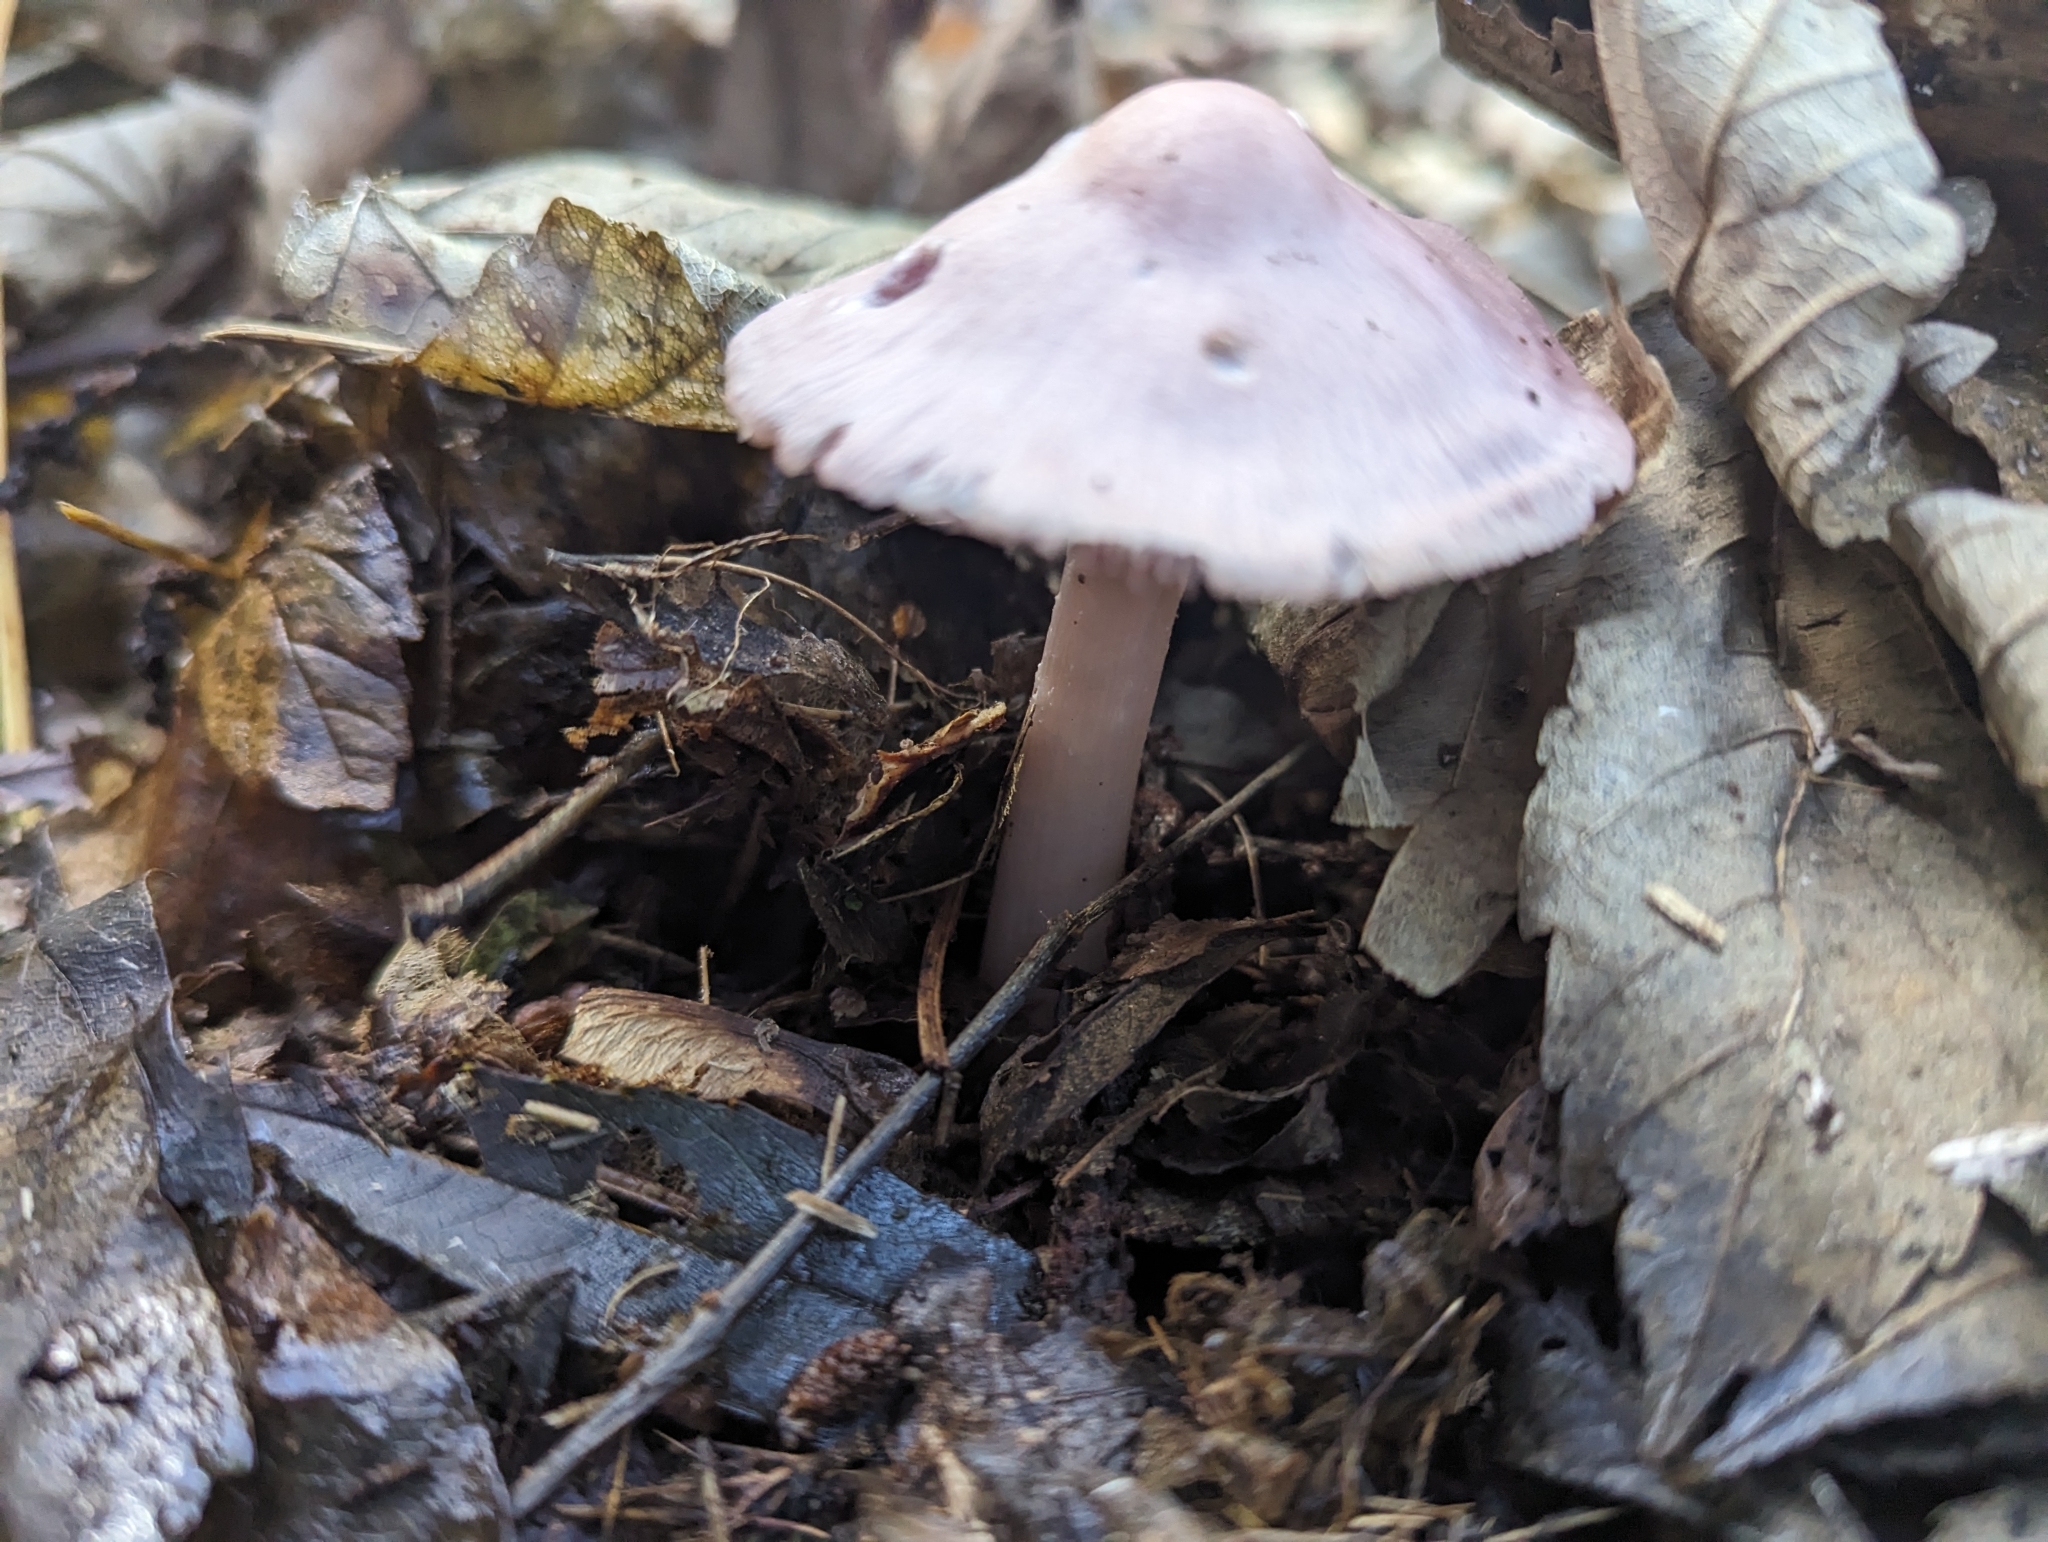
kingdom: Fungi
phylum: Basidiomycota
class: Agaricomycetes
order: Agaricales
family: Mycenaceae
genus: Mycena
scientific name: Mycena rosea
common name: Rosy bonnet
